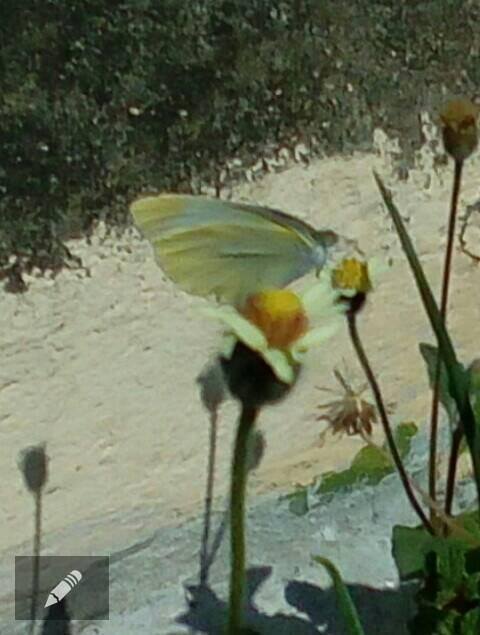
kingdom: Animalia
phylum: Arthropoda
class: Insecta
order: Lepidoptera
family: Pieridae
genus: Pieris
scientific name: Pieris rapae
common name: Small white
